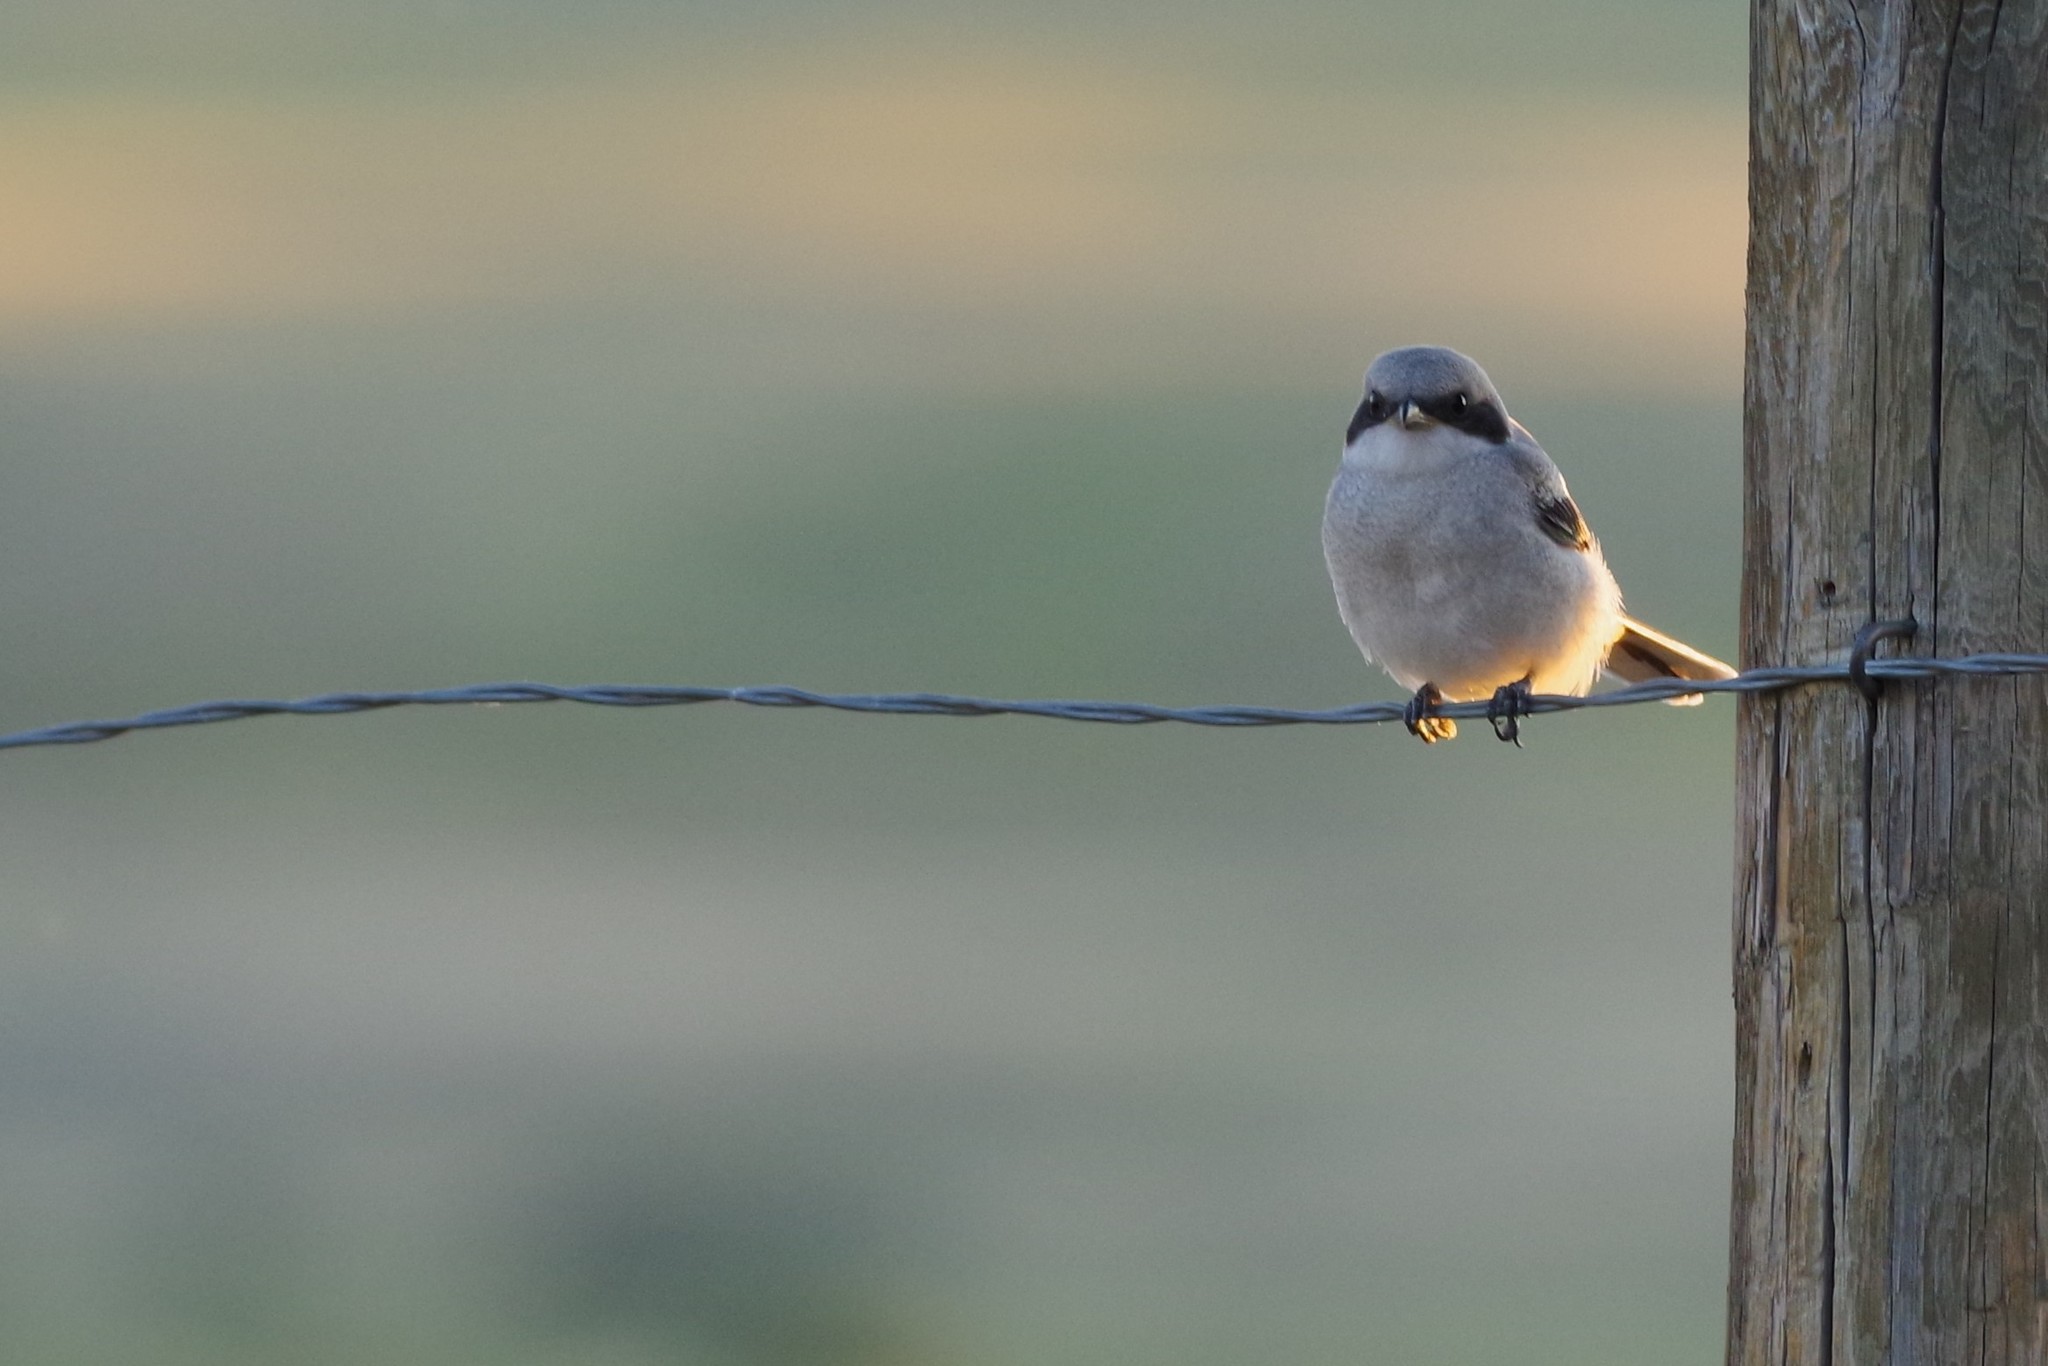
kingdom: Animalia
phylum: Chordata
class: Aves
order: Passeriformes
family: Laniidae
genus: Lanius
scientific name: Lanius ludovicianus
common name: Loggerhead shrike
